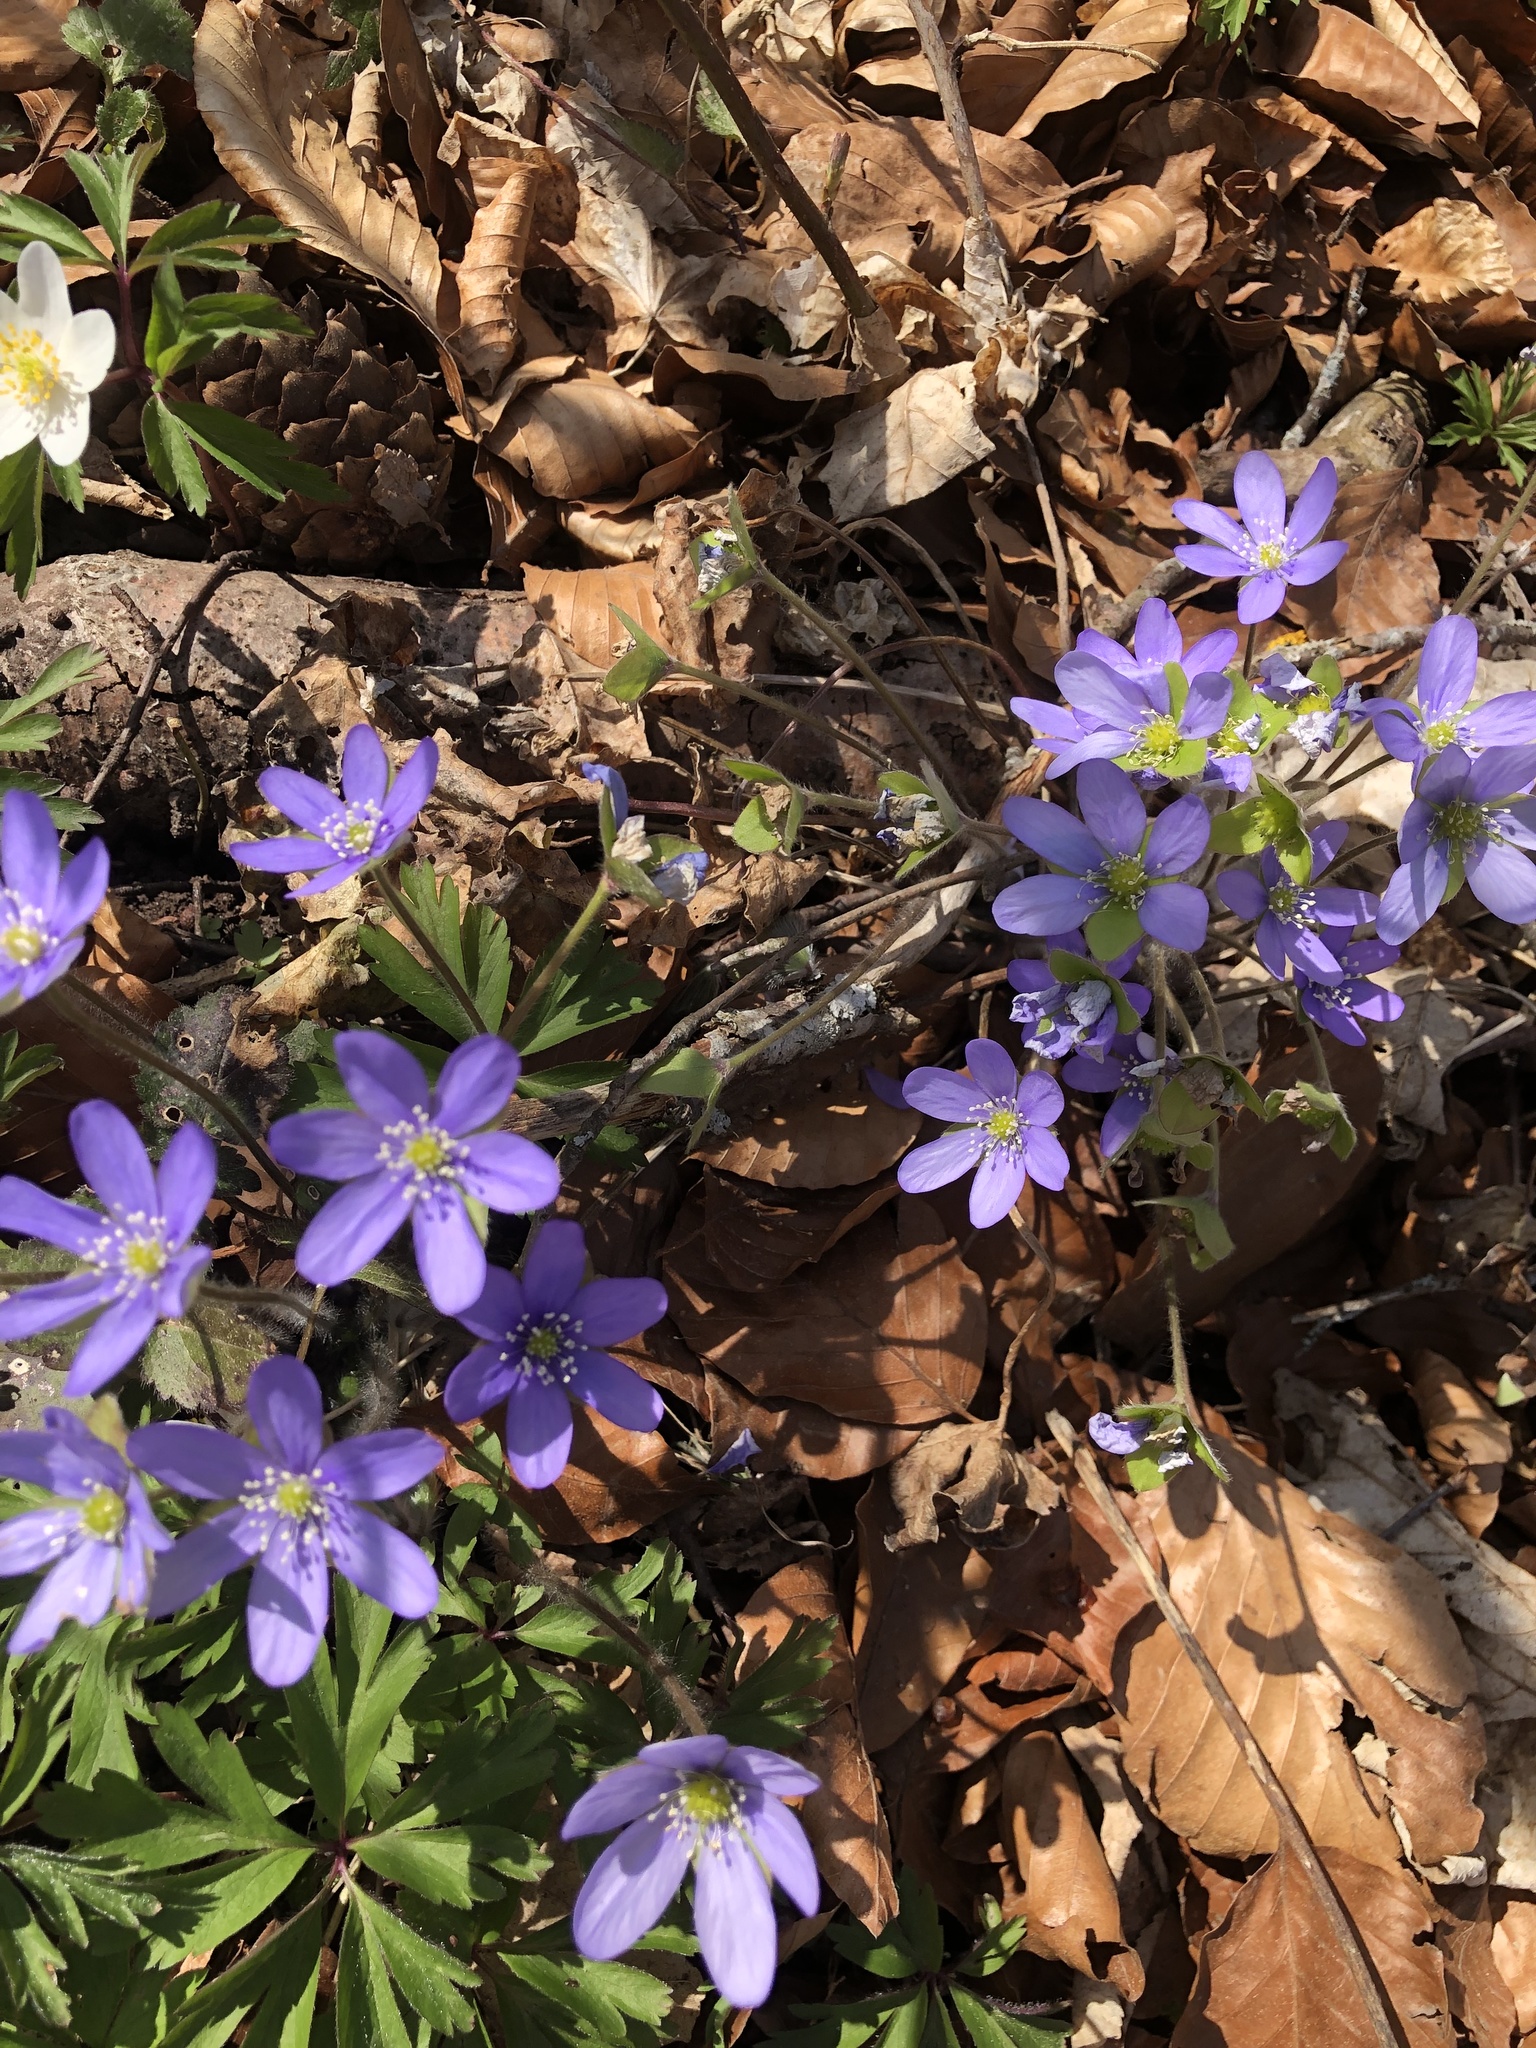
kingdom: Plantae
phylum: Tracheophyta
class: Magnoliopsida
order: Ranunculales
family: Ranunculaceae
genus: Hepatica
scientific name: Hepatica nobilis
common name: Liverleaf
